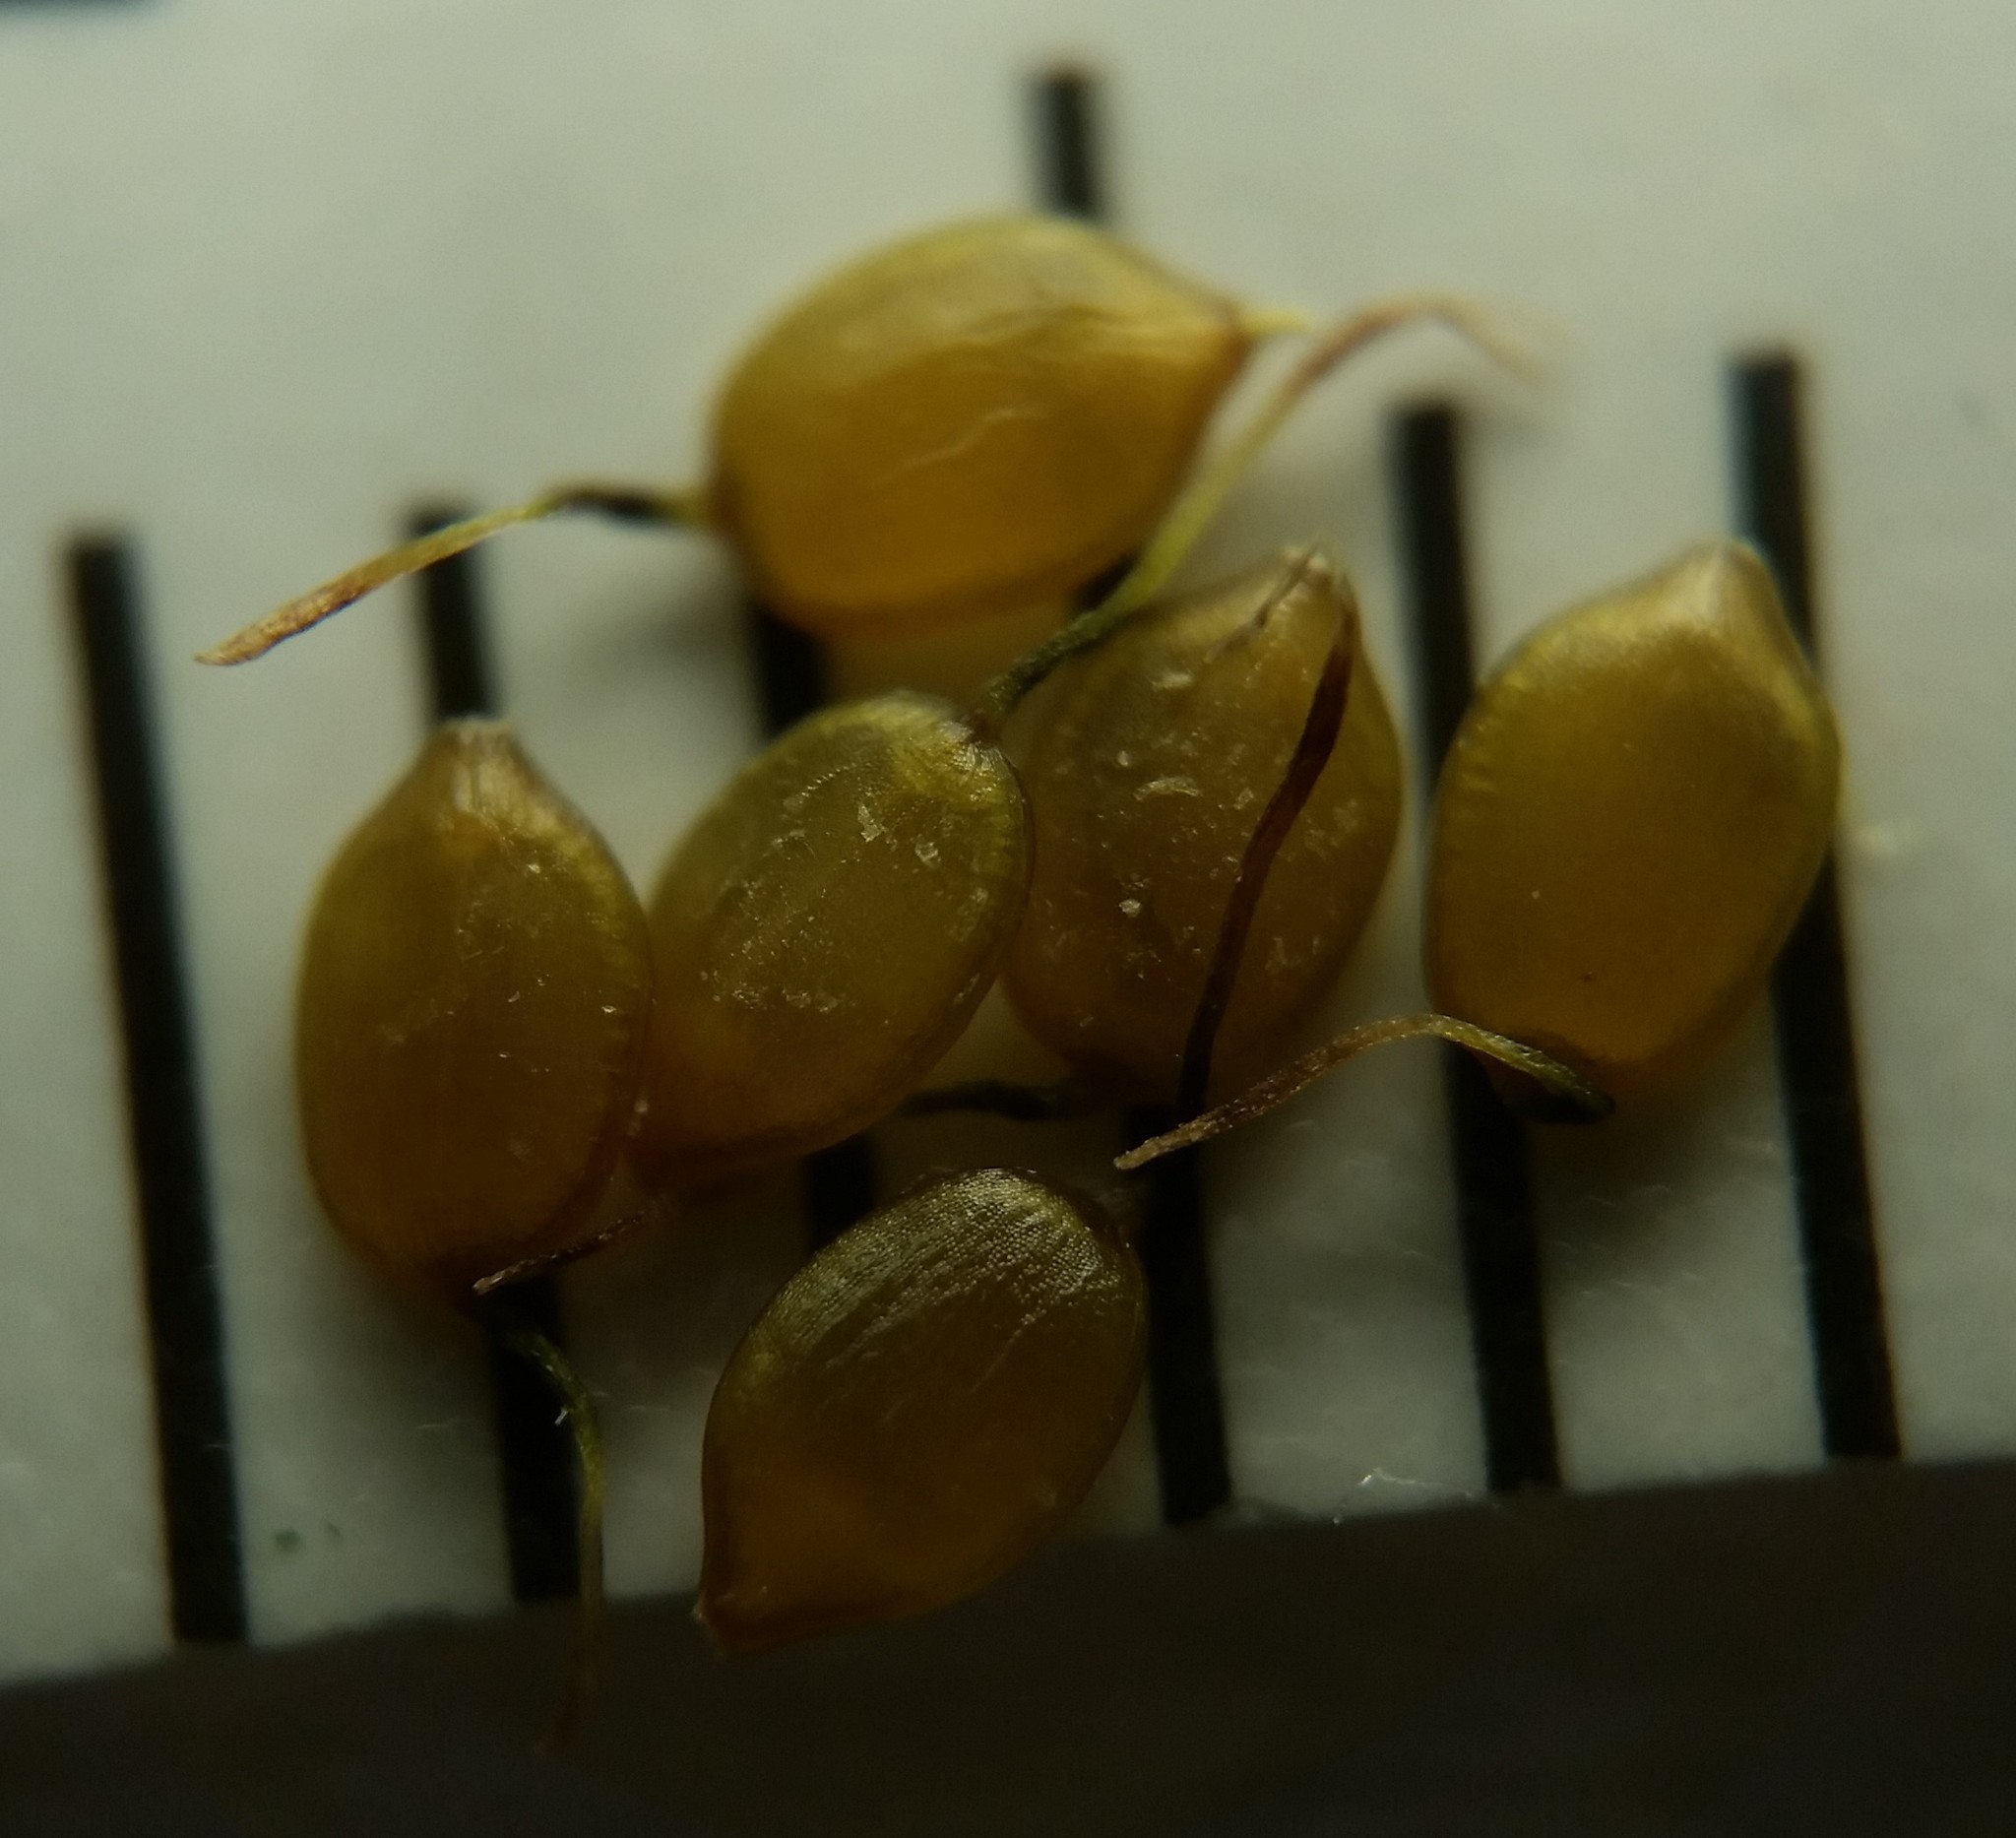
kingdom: Plantae
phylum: Tracheophyta
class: Liliopsida
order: Poales
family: Cyperaceae
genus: Carex
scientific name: Carex silicea
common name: Beach sedge
